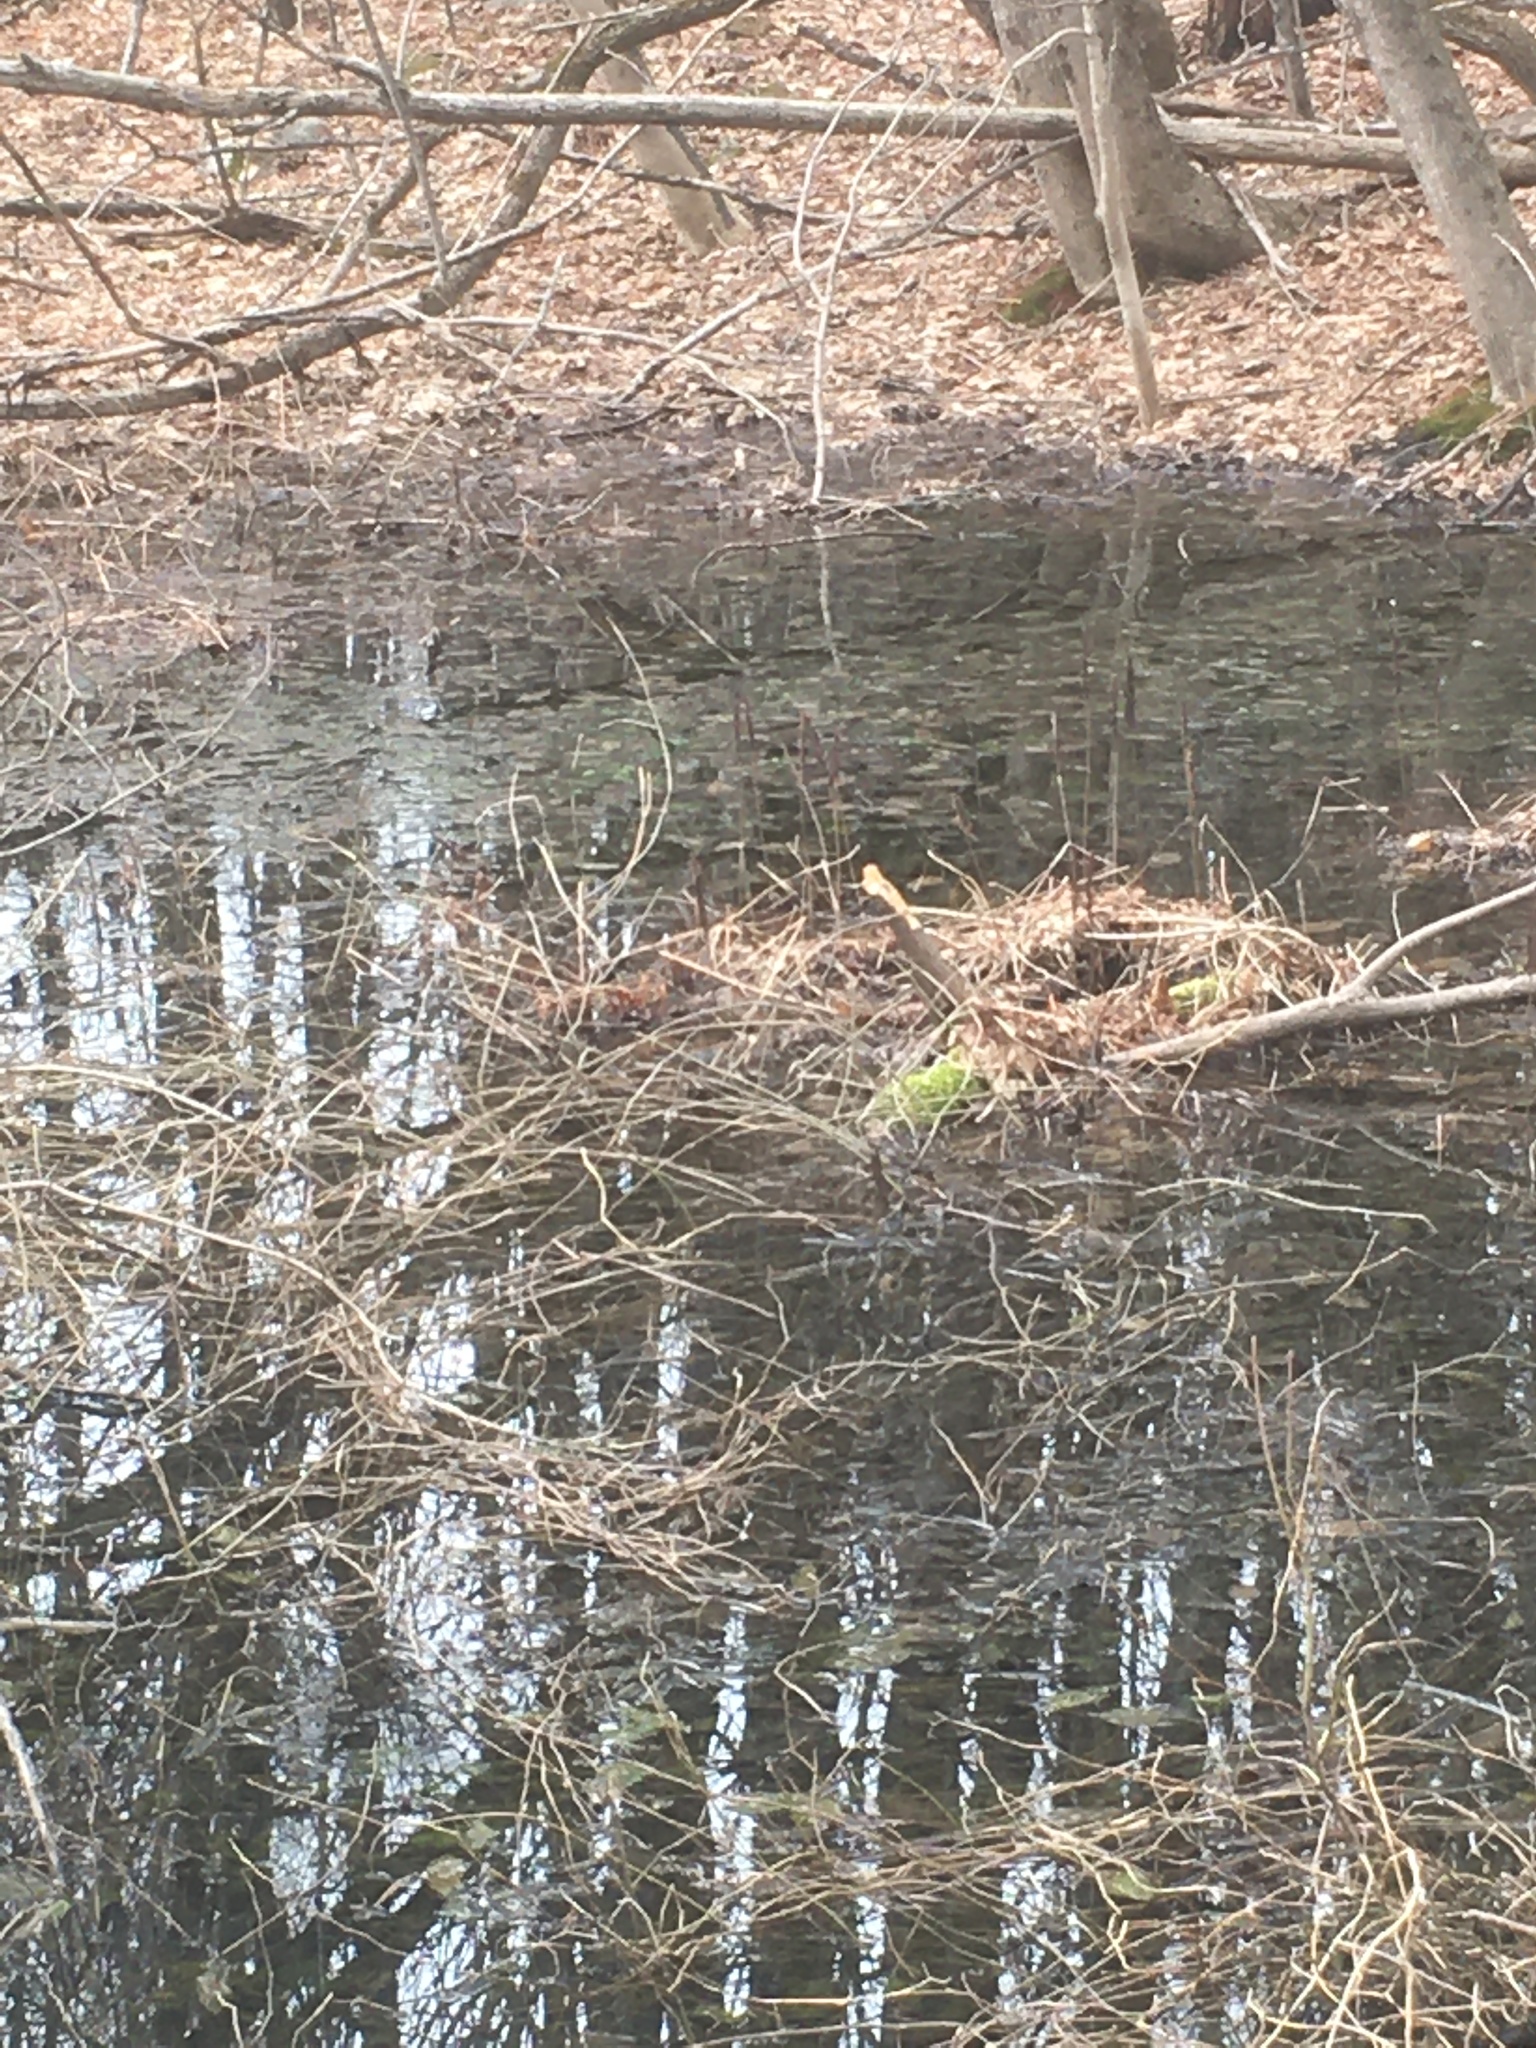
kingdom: Plantae
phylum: Tracheophyta
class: Polypodiopsida
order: Polypodiales
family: Onocleaceae
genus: Onoclea
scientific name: Onoclea sensibilis
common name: Sensitive fern
